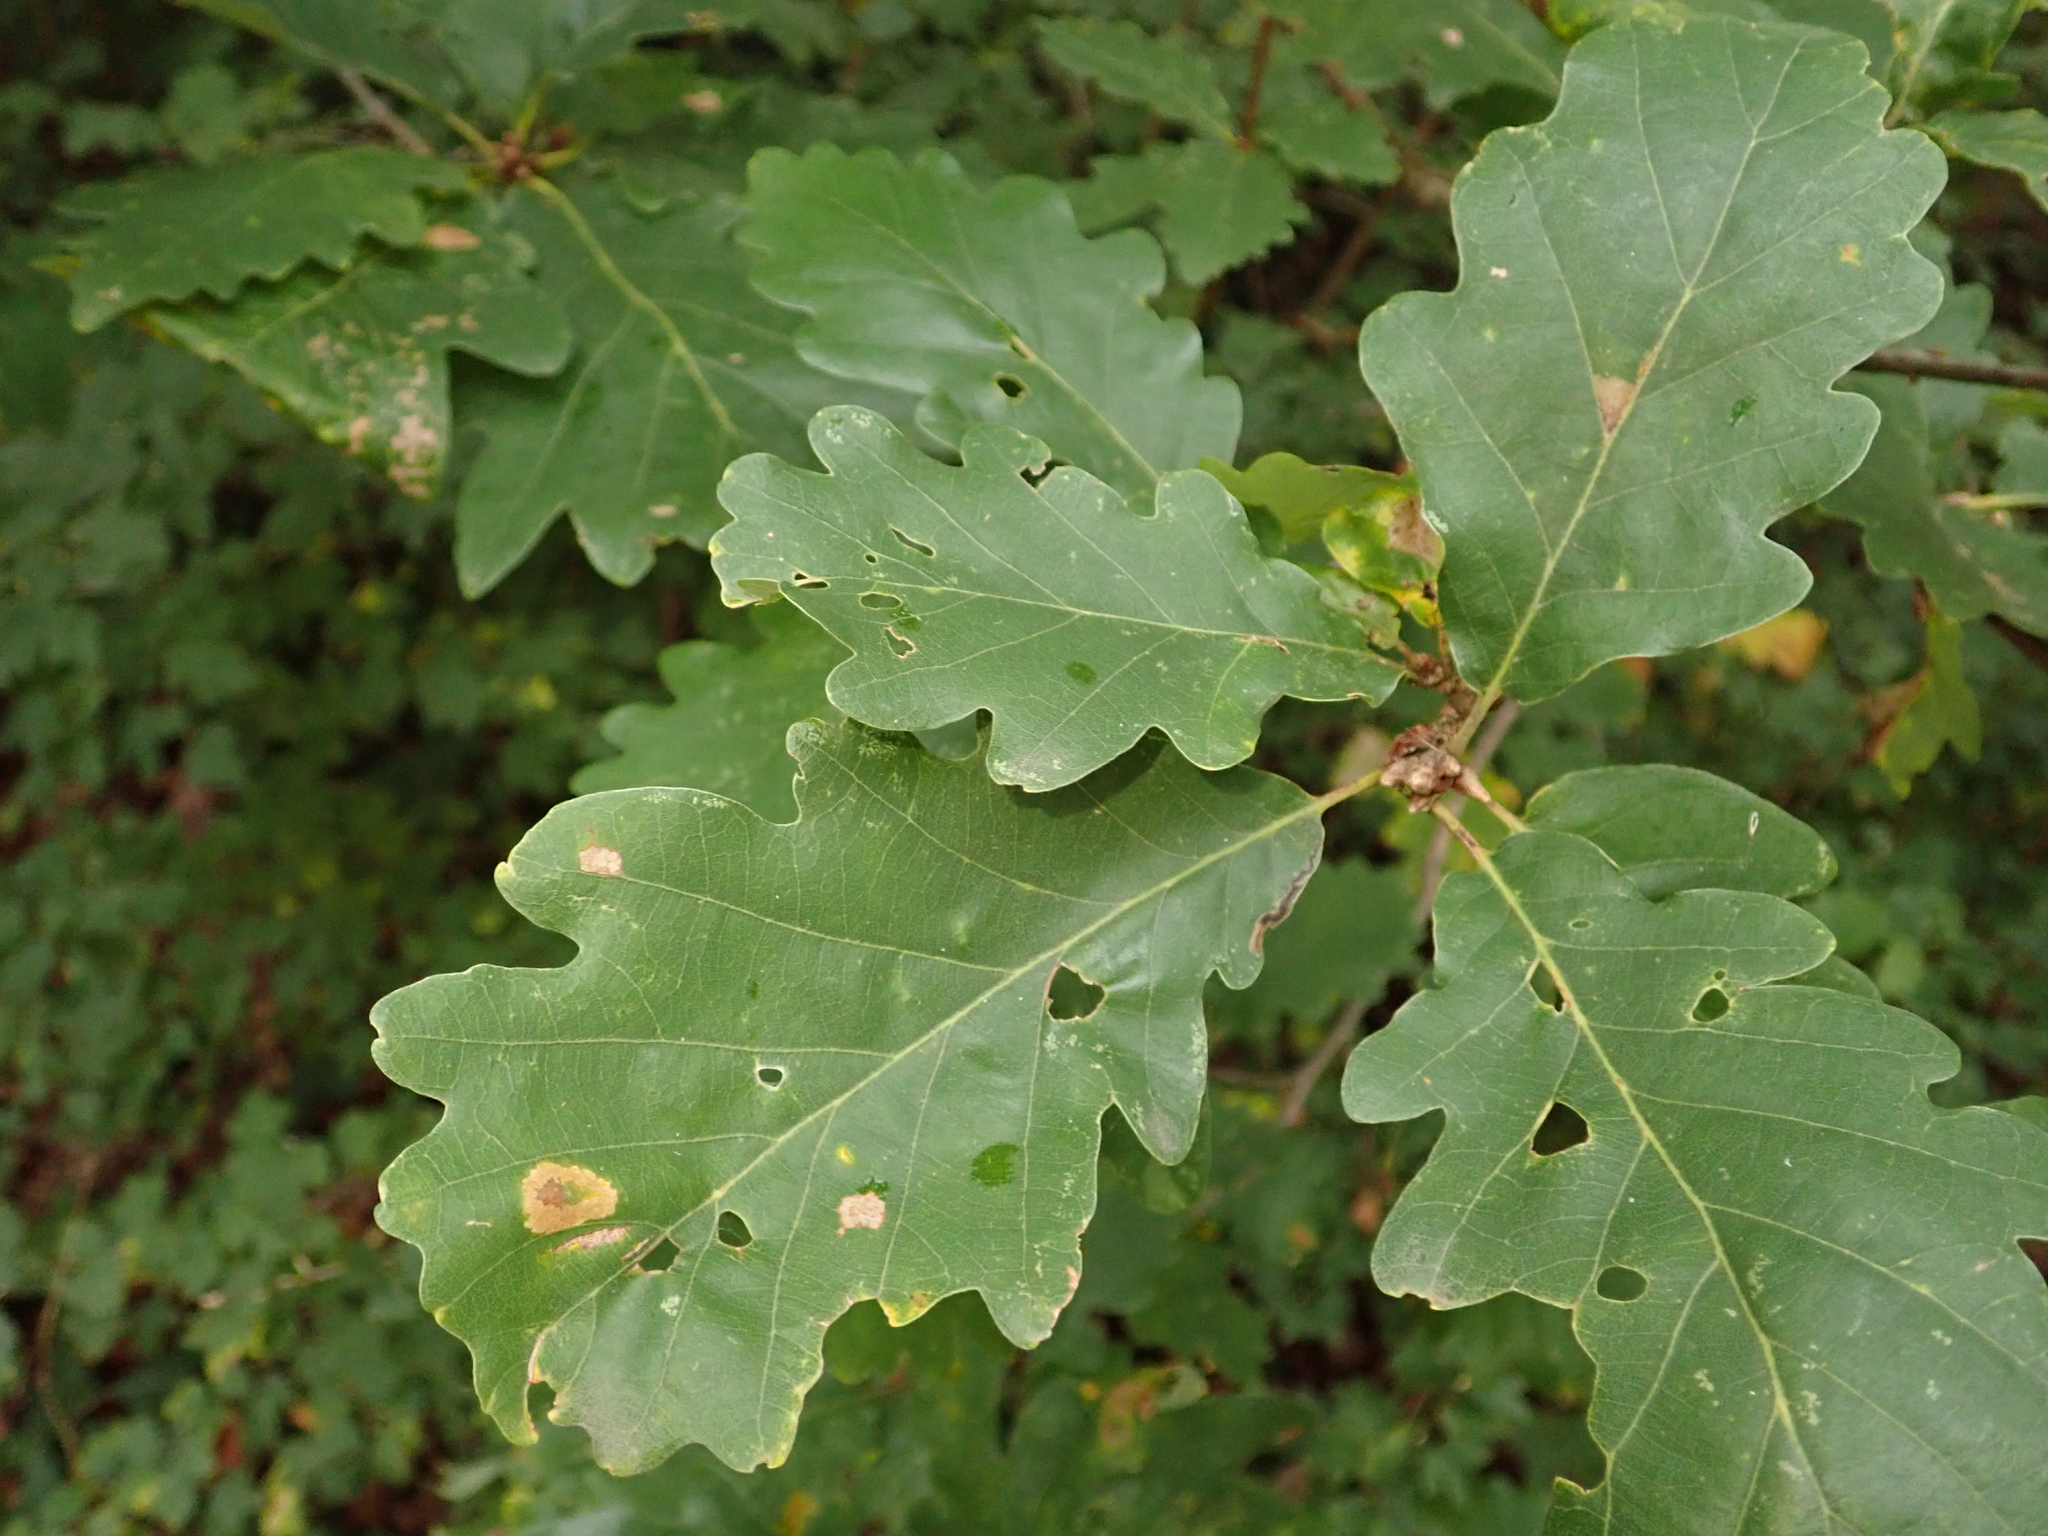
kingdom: Plantae
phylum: Tracheophyta
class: Magnoliopsida
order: Fagales
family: Fagaceae
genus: Quercus
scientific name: Quercus petraea
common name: Sessile oak
